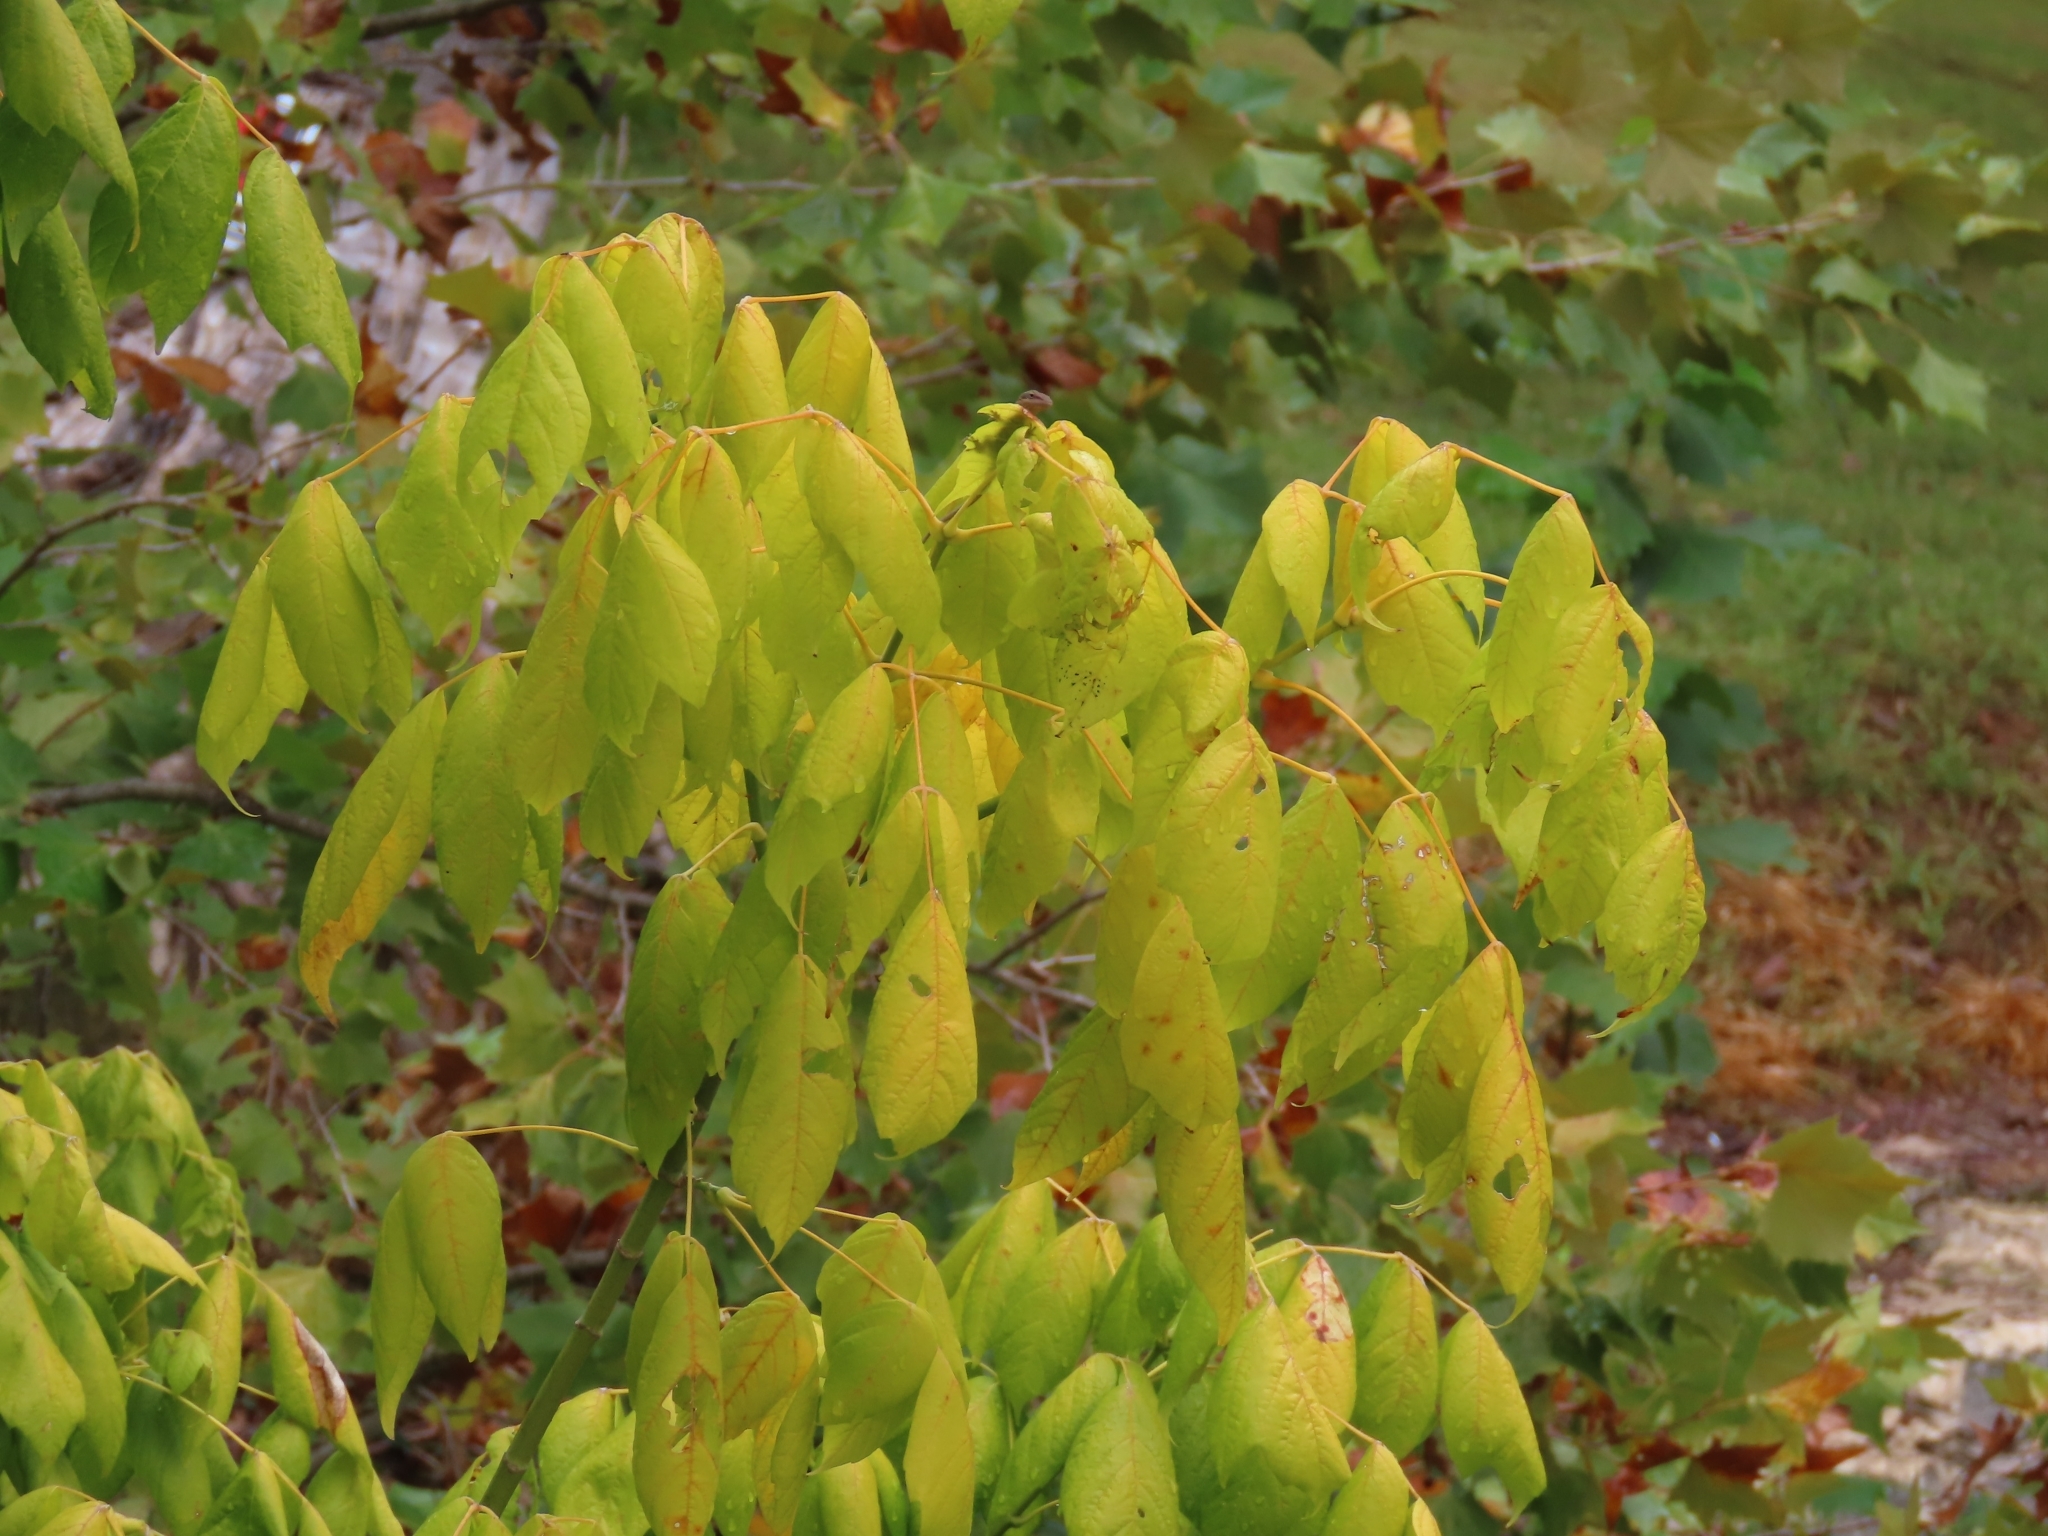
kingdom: Plantae
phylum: Tracheophyta
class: Magnoliopsida
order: Sapindales
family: Sapindaceae
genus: Acer
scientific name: Acer negundo
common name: Ashleaf maple
